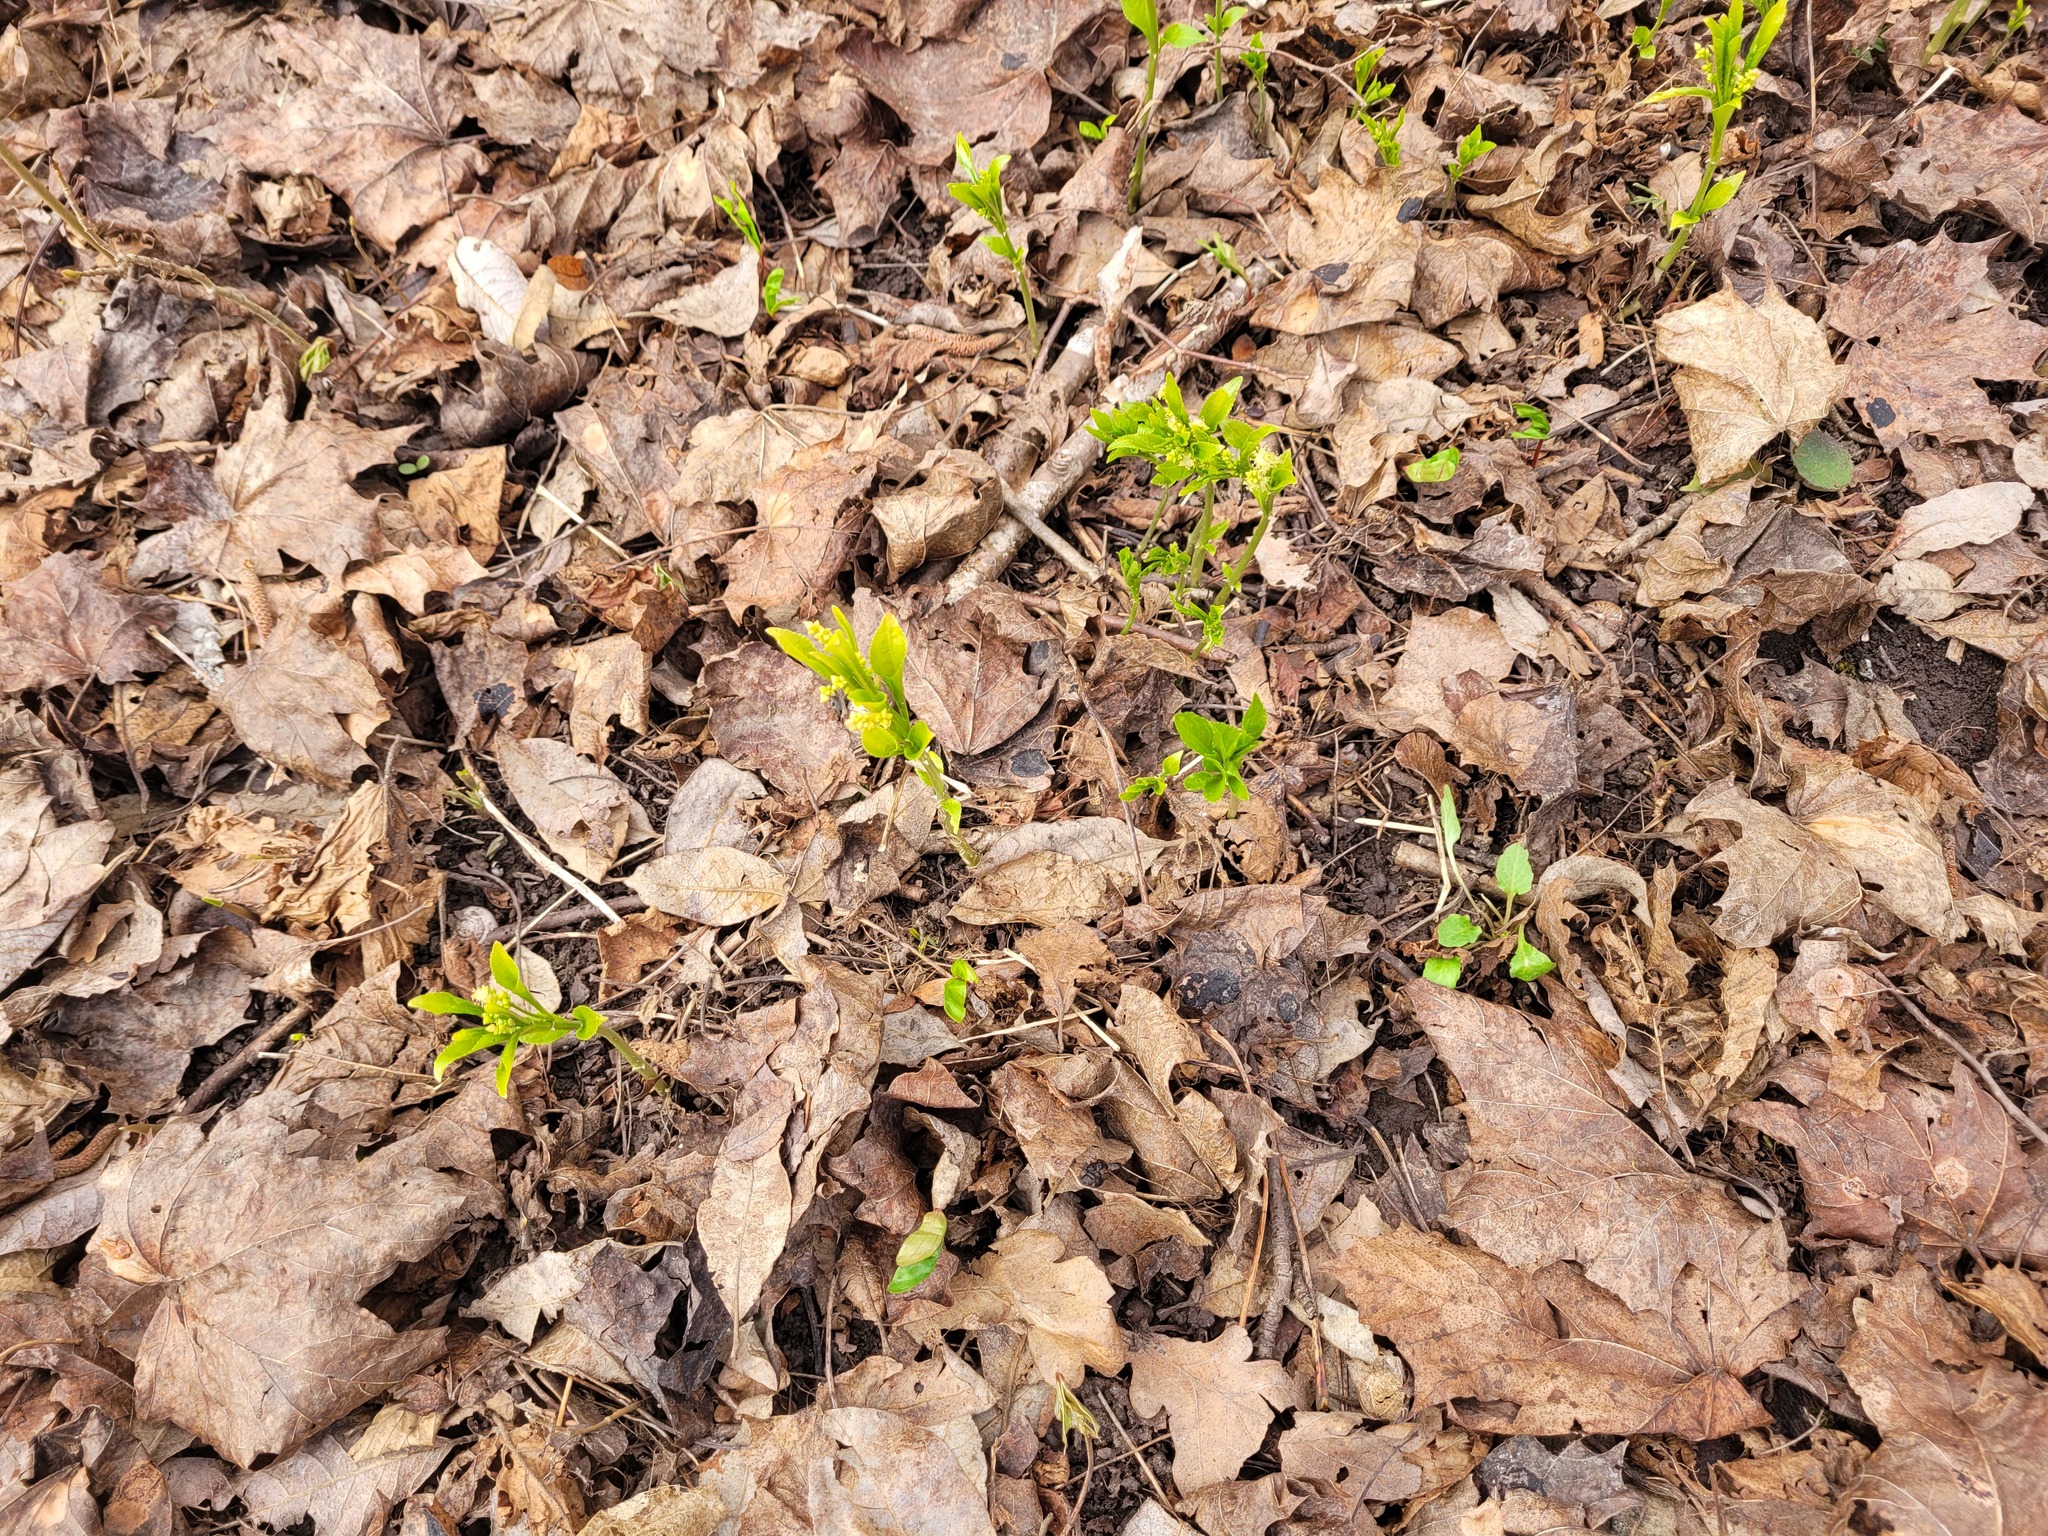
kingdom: Plantae
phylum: Tracheophyta
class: Magnoliopsida
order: Malpighiales
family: Euphorbiaceae
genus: Mercurialis
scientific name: Mercurialis perennis
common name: Dog mercury
